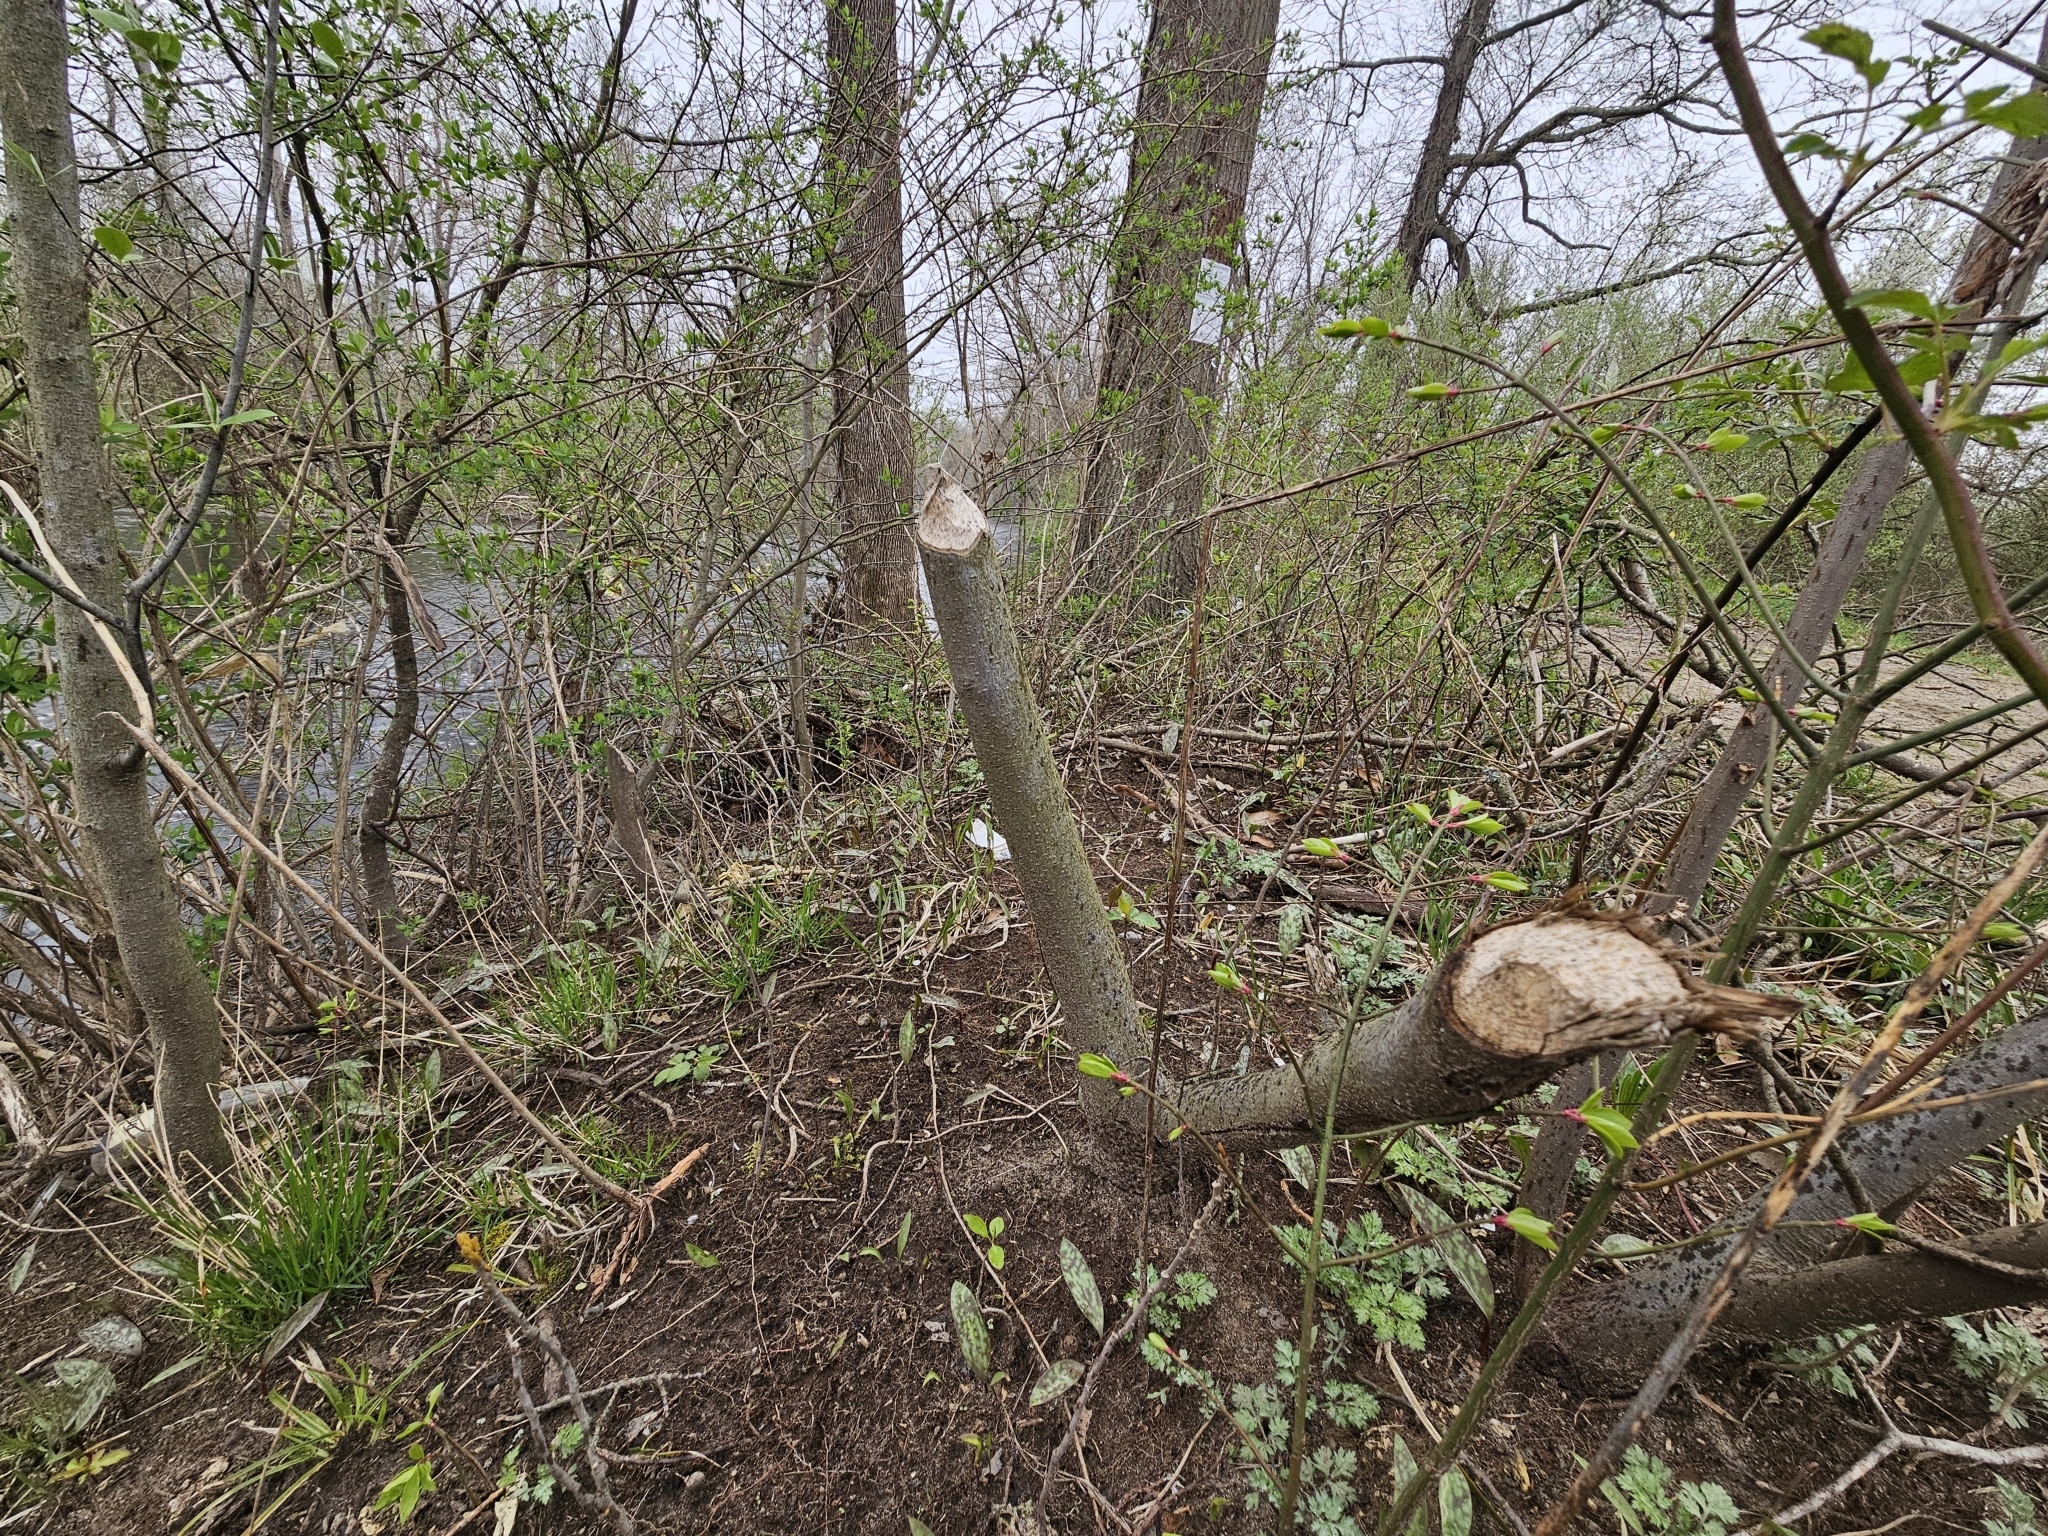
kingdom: Animalia
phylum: Chordata
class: Mammalia
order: Rodentia
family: Castoridae
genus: Castor
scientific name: Castor canadensis
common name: American beaver
